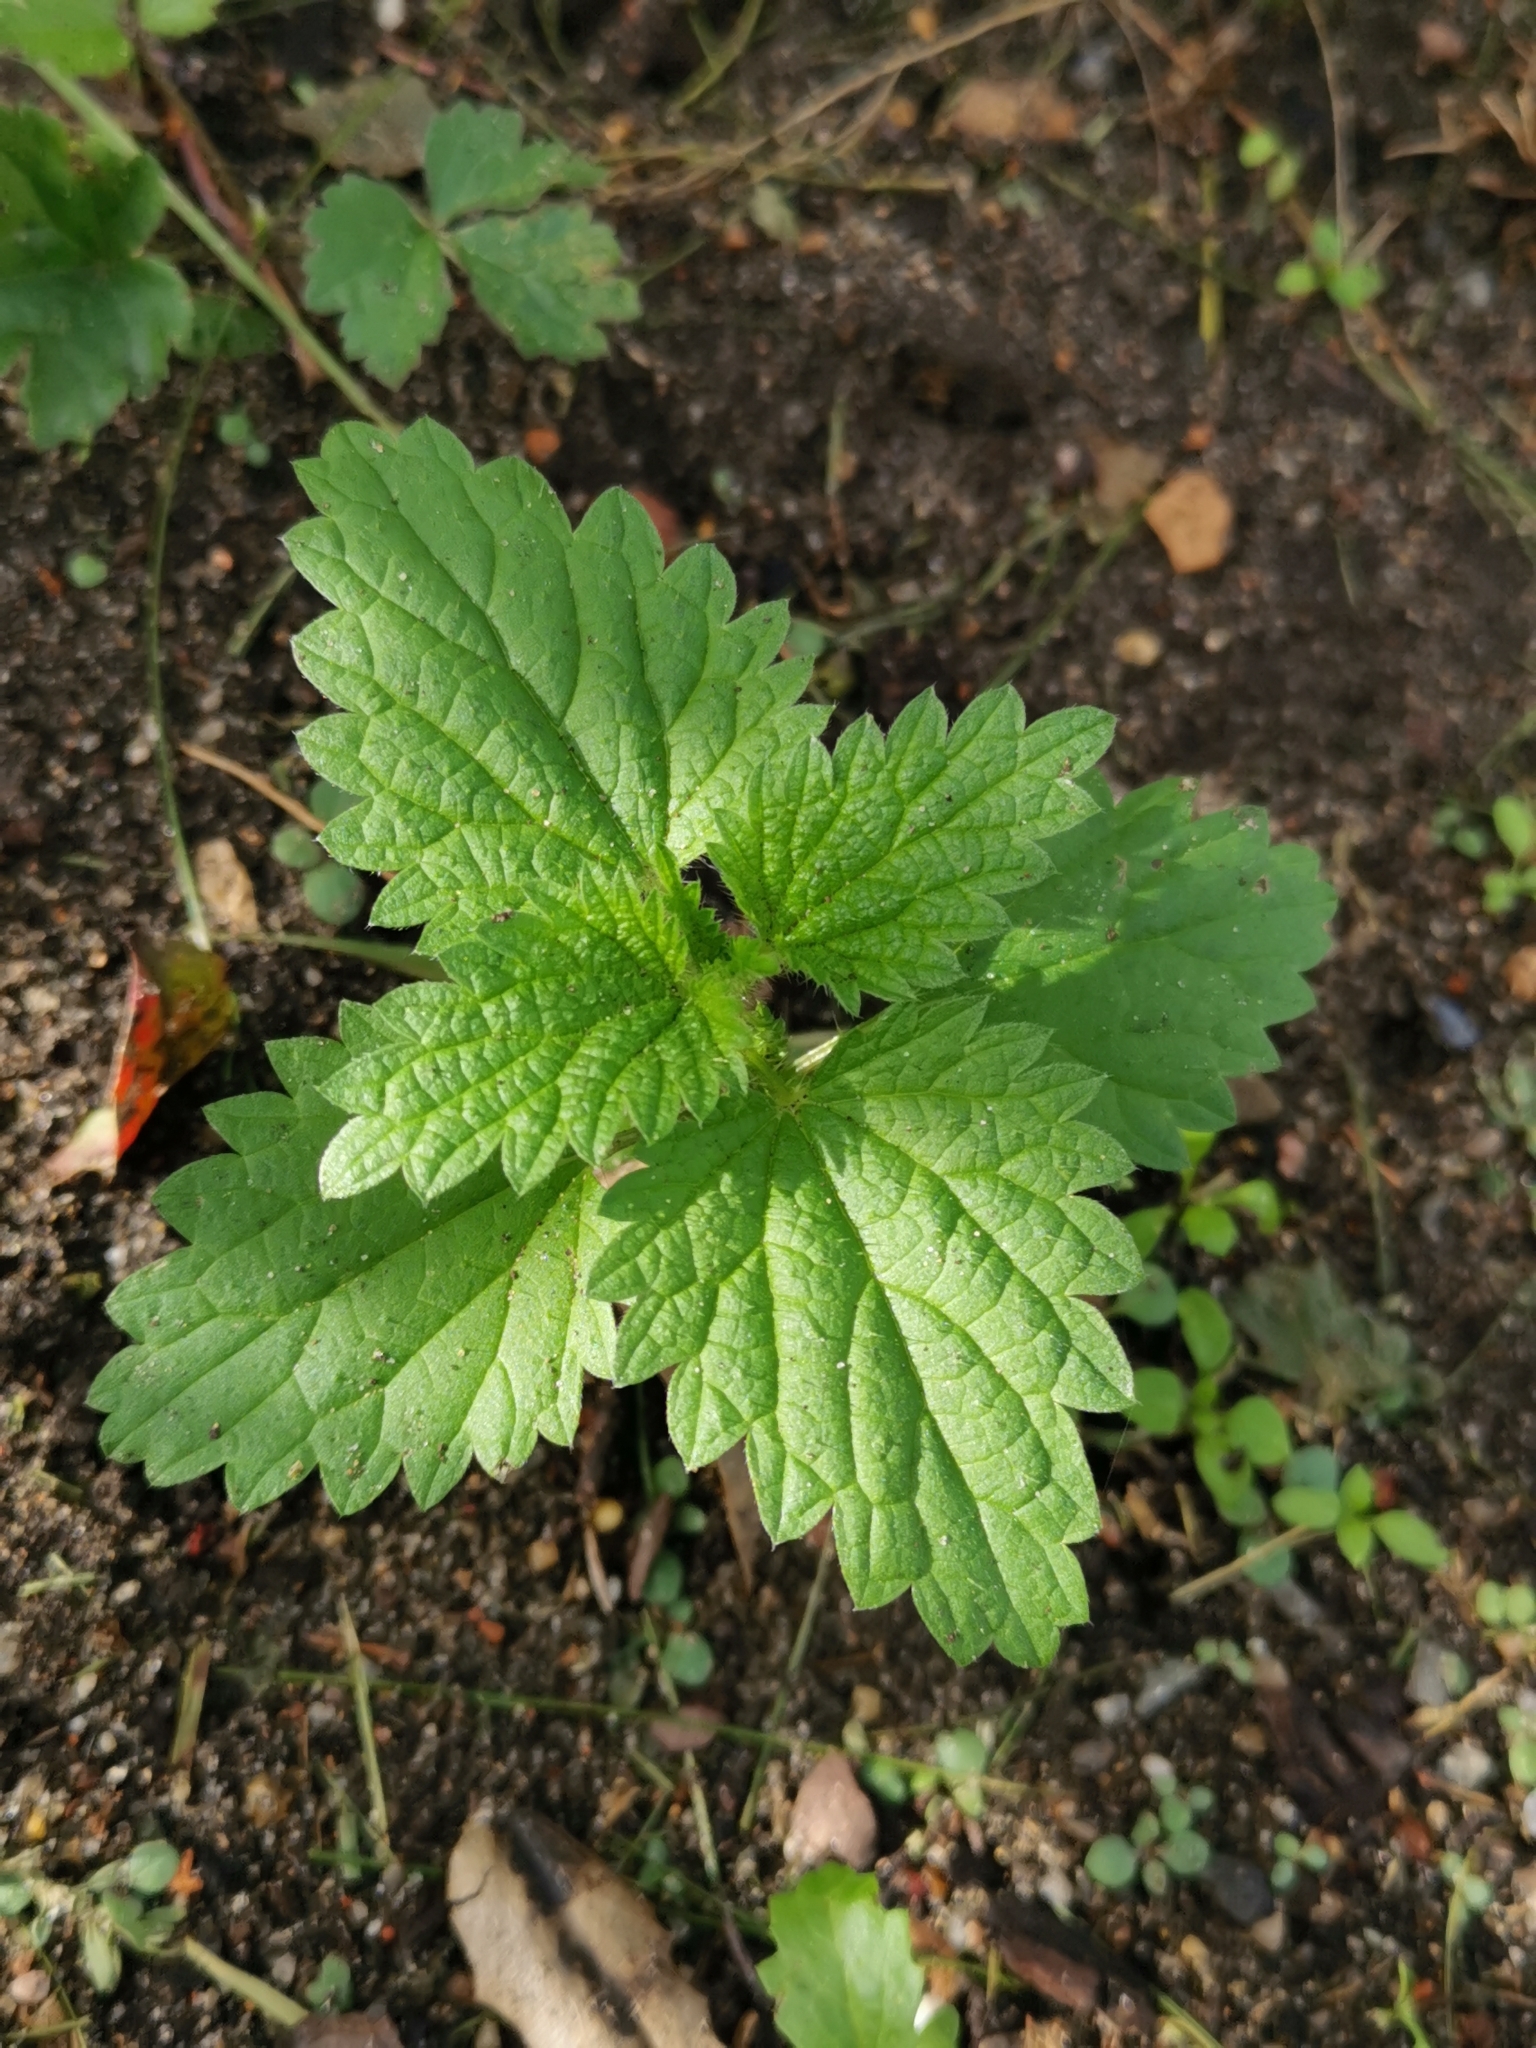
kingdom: Plantae
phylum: Tracheophyta
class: Magnoliopsida
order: Rosales
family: Urticaceae
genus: Urtica
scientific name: Urtica dioica
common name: Common nettle
